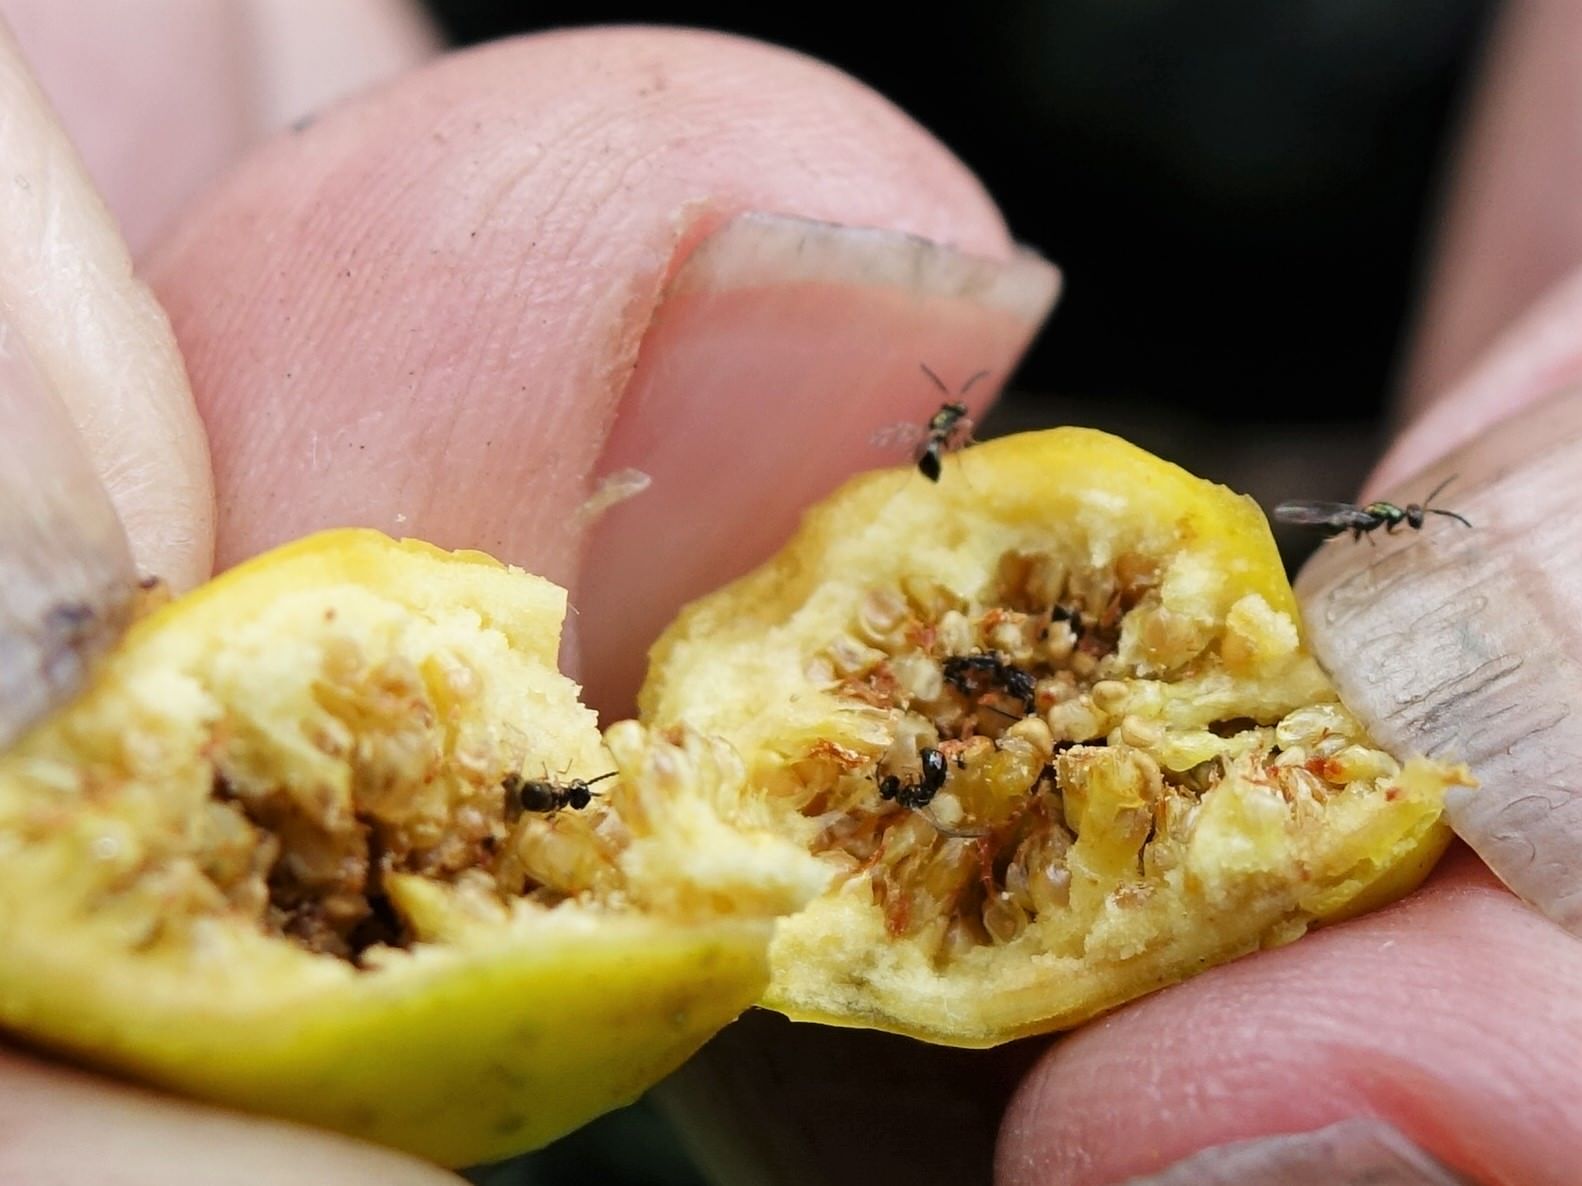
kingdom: Animalia
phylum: Arthropoda
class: Insecta
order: Hymenoptera
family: Agaonidae
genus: Pseudidarnes
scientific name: Pseudidarnes minerva
